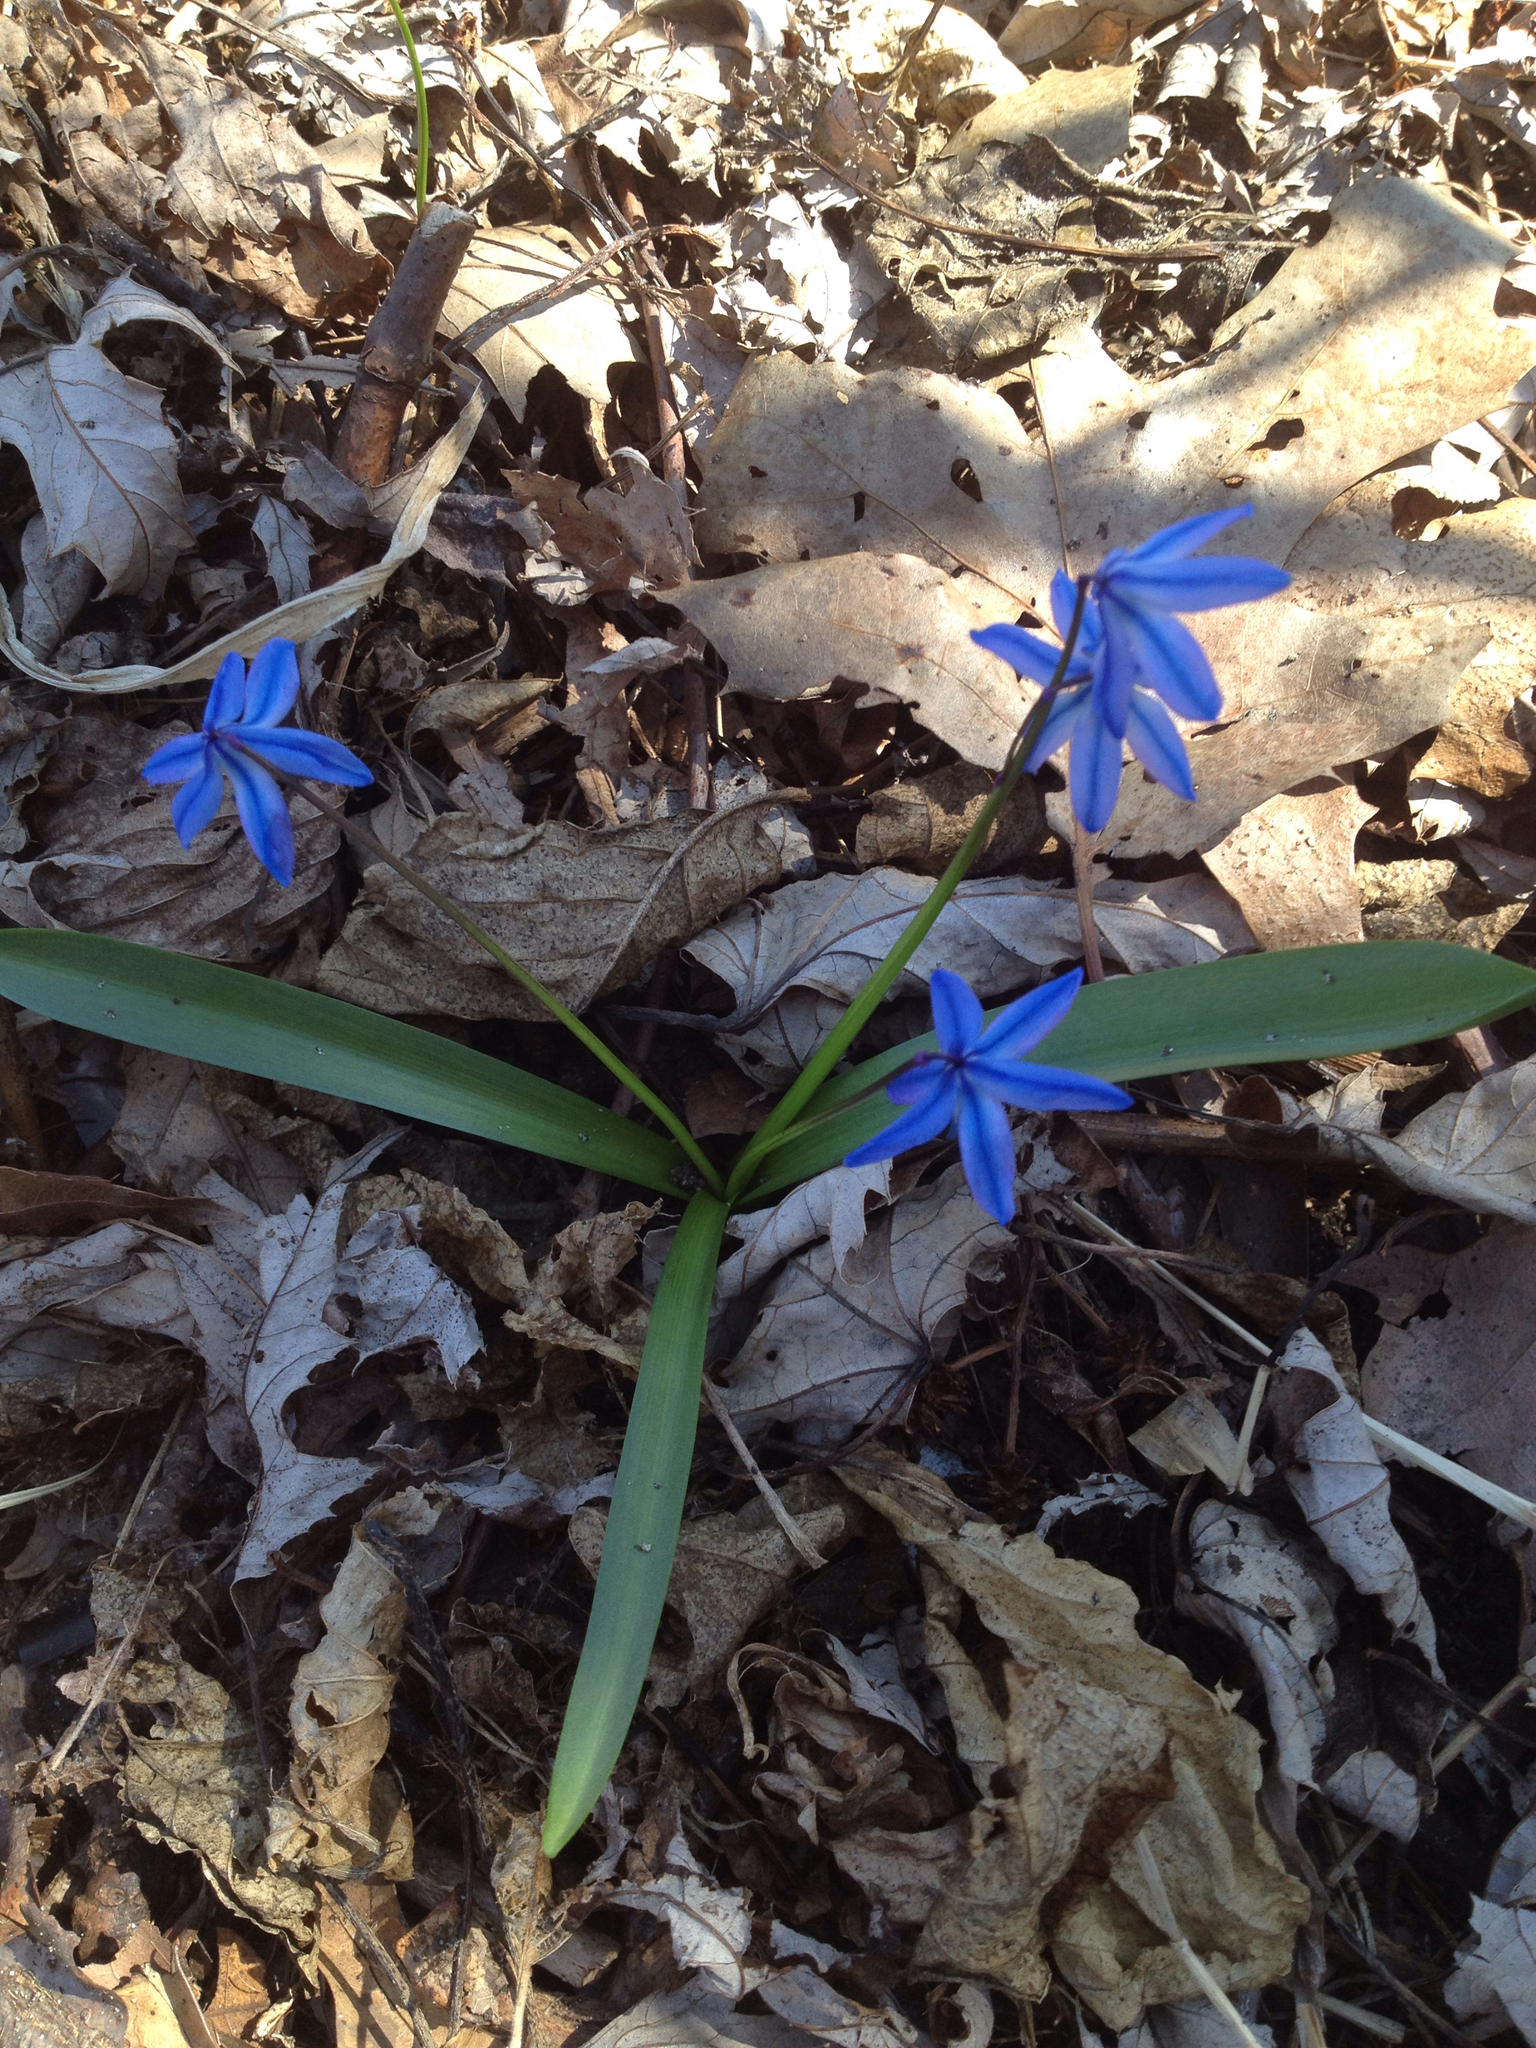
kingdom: Plantae
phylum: Tracheophyta
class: Liliopsida
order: Asparagales
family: Asparagaceae
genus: Scilla
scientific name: Scilla siberica
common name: Siberian squill
